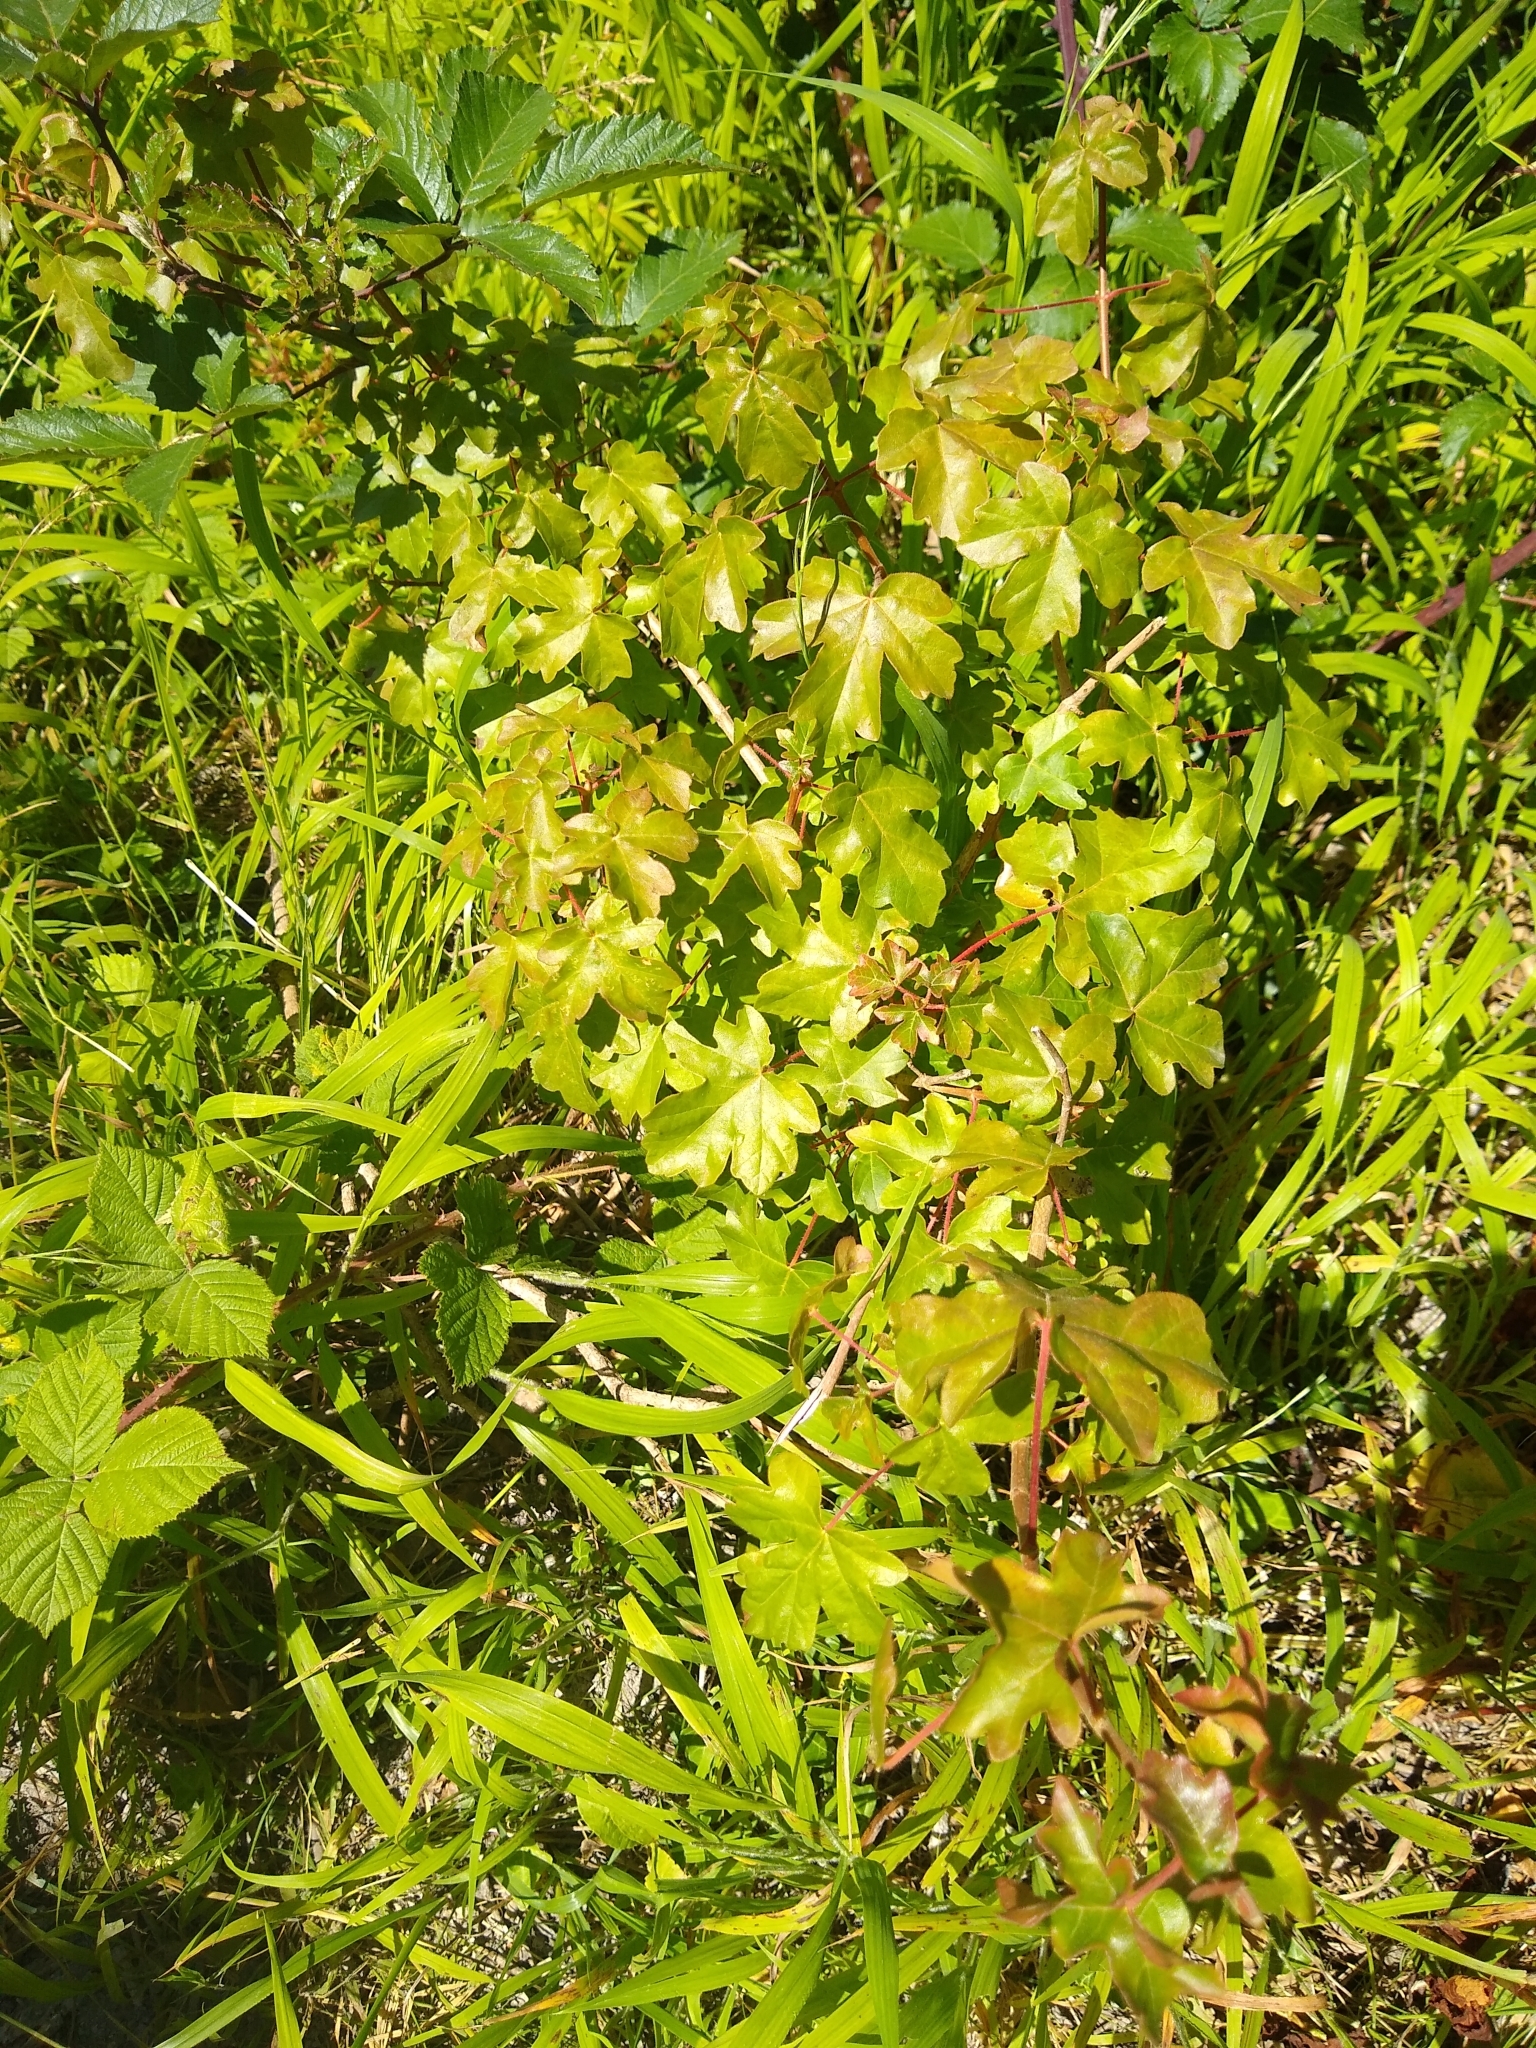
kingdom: Plantae
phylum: Tracheophyta
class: Magnoliopsida
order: Sapindales
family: Sapindaceae
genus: Acer
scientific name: Acer campestre
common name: Field maple
